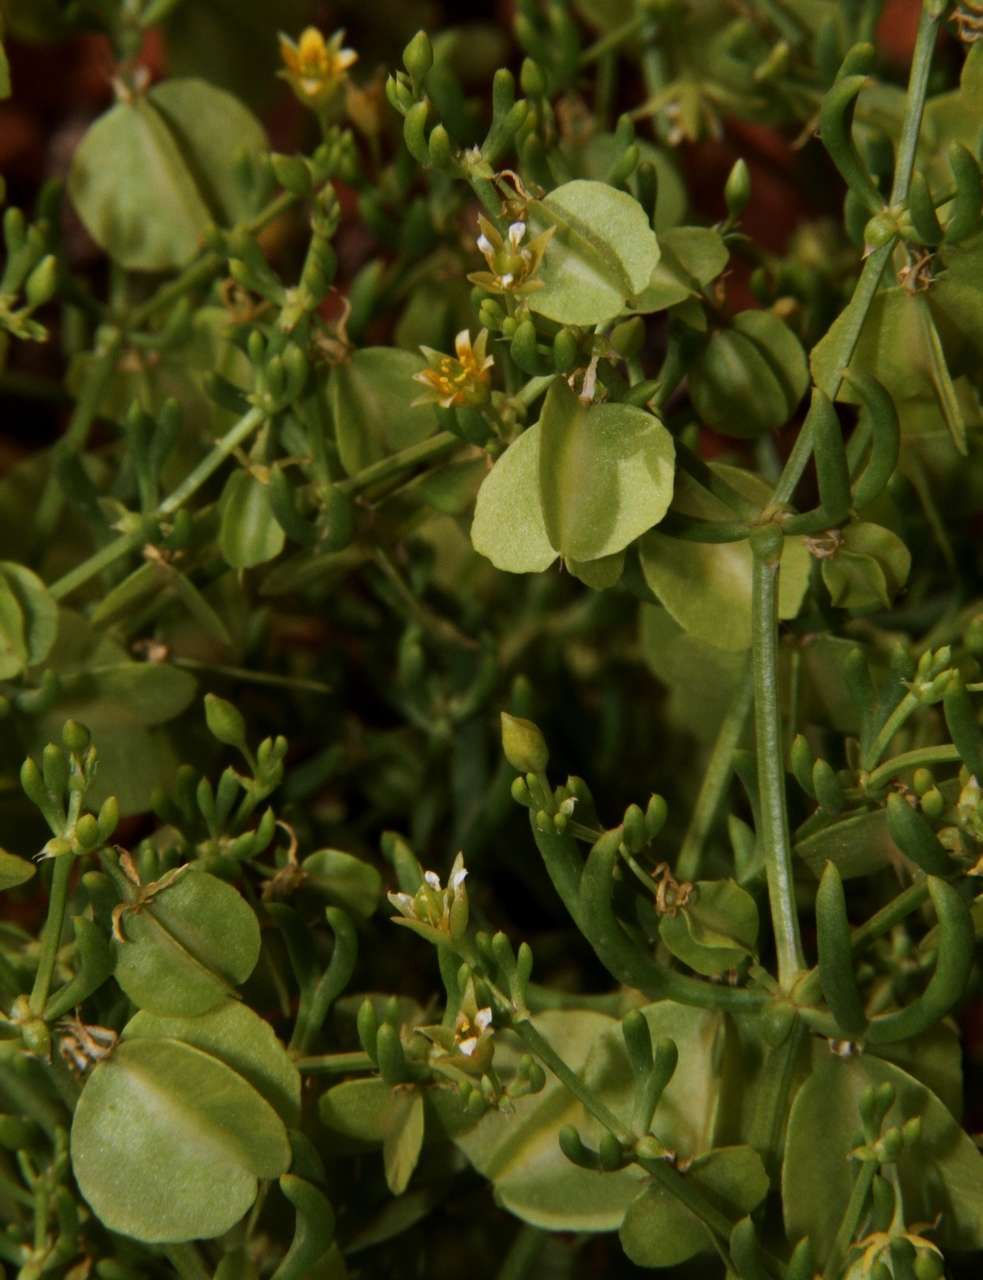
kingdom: Plantae
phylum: Tracheophyta
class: Magnoliopsida
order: Zygophyllales
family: Zygophyllaceae
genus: Roepera
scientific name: Roepera eremaea
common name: Climbing twinleaf
